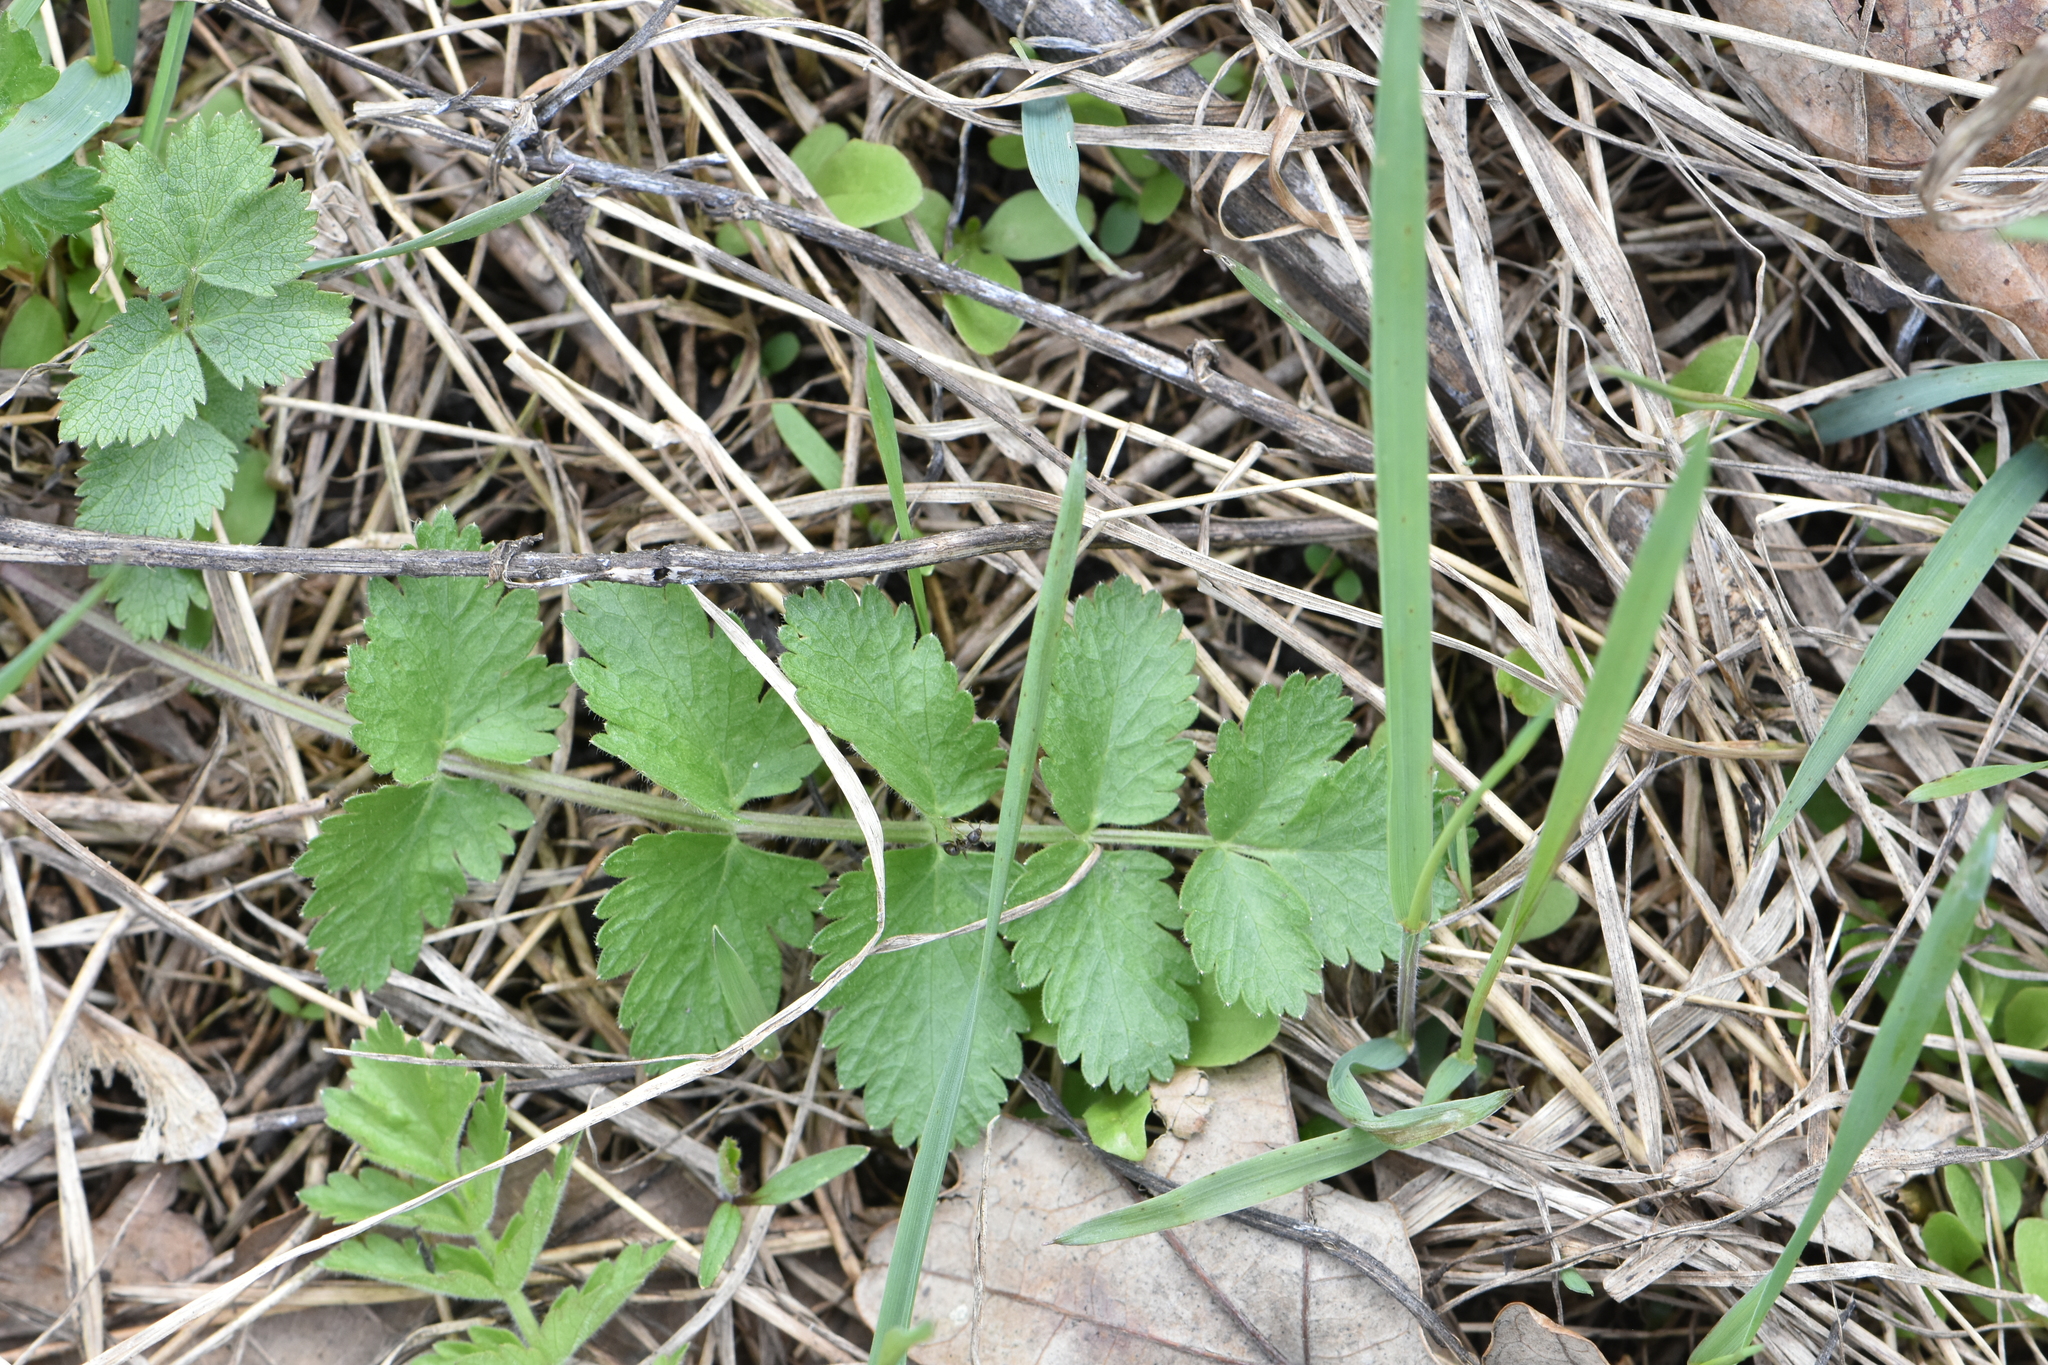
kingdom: Plantae
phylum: Tracheophyta
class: Magnoliopsida
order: Apiales
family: Apiaceae
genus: Pimpinella
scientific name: Pimpinella saxifraga
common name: Burnet-saxifrage
